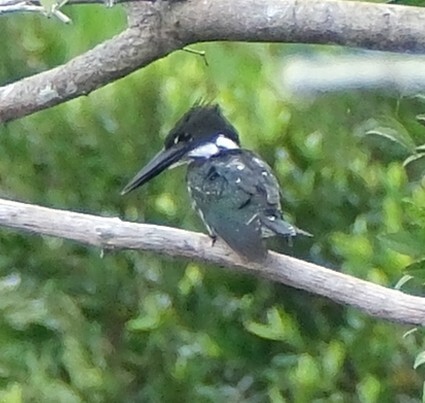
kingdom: Animalia
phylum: Chordata
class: Aves
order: Coraciiformes
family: Alcedinidae
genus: Chloroceryle
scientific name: Chloroceryle amazona
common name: Amazon kingfisher
